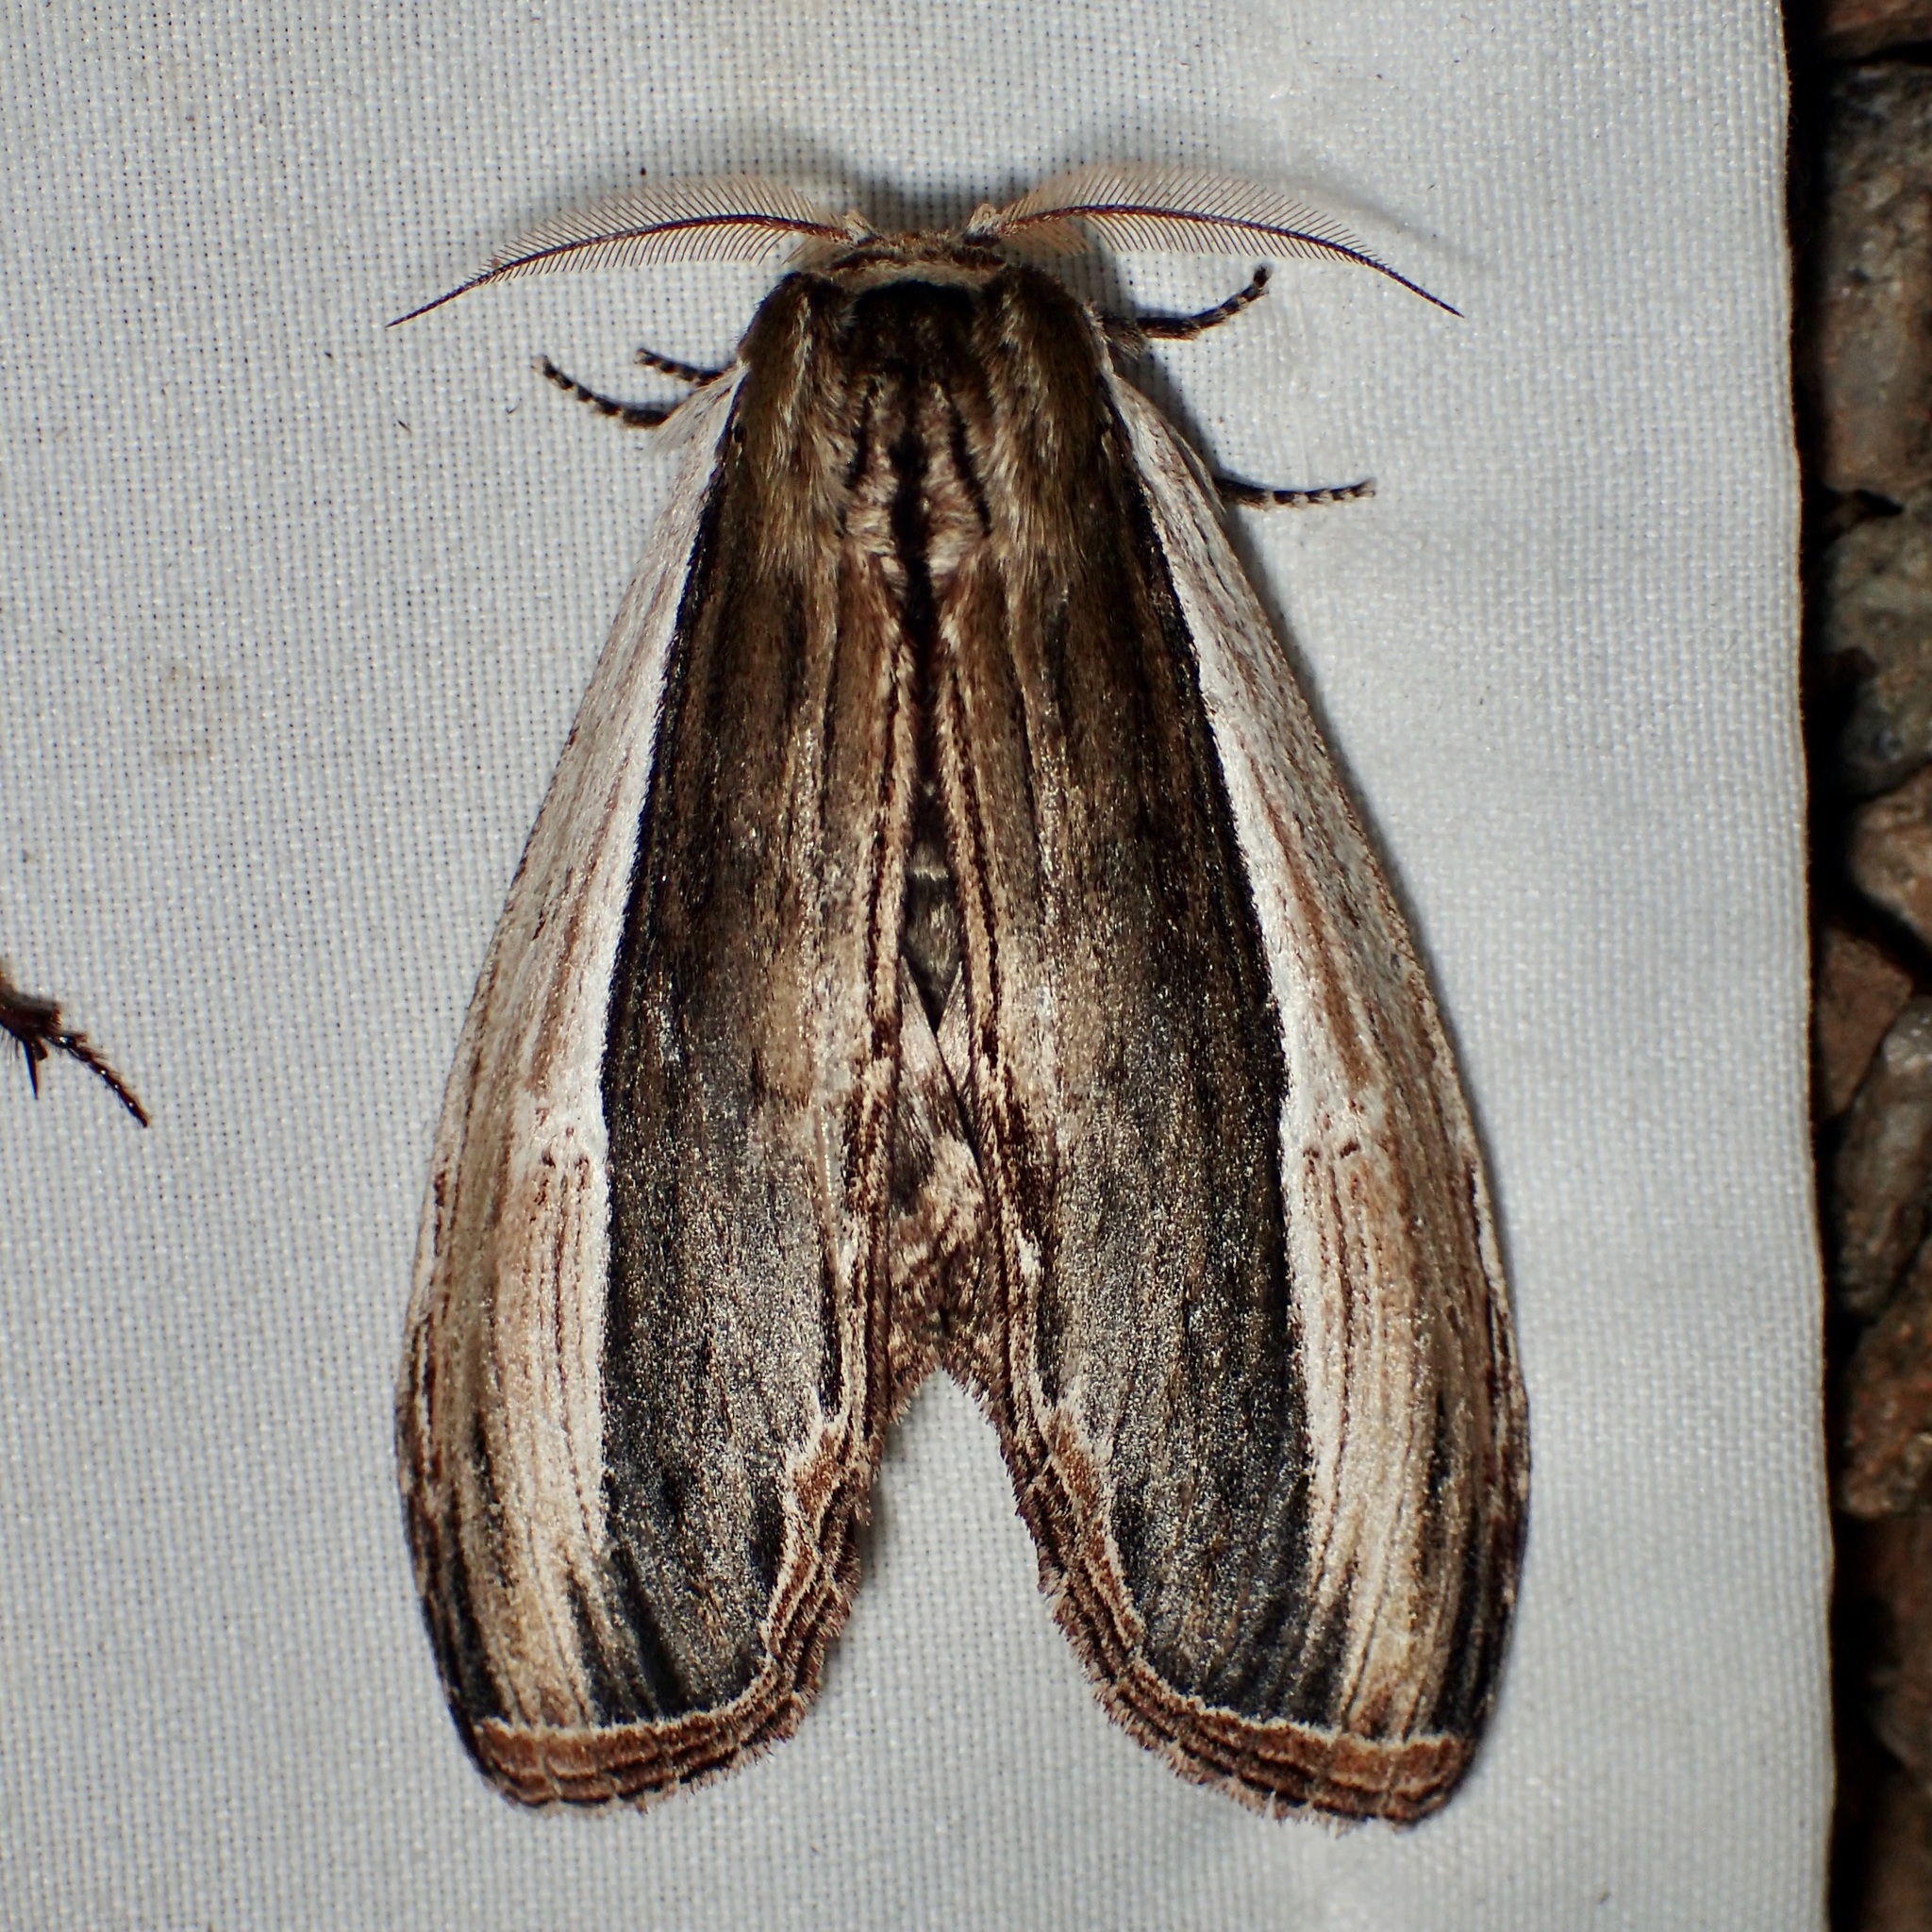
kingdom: Animalia
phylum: Arthropoda
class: Insecta
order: Lepidoptera
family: Notodontidae
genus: Truncaptera
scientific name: Truncaptera inopinata
